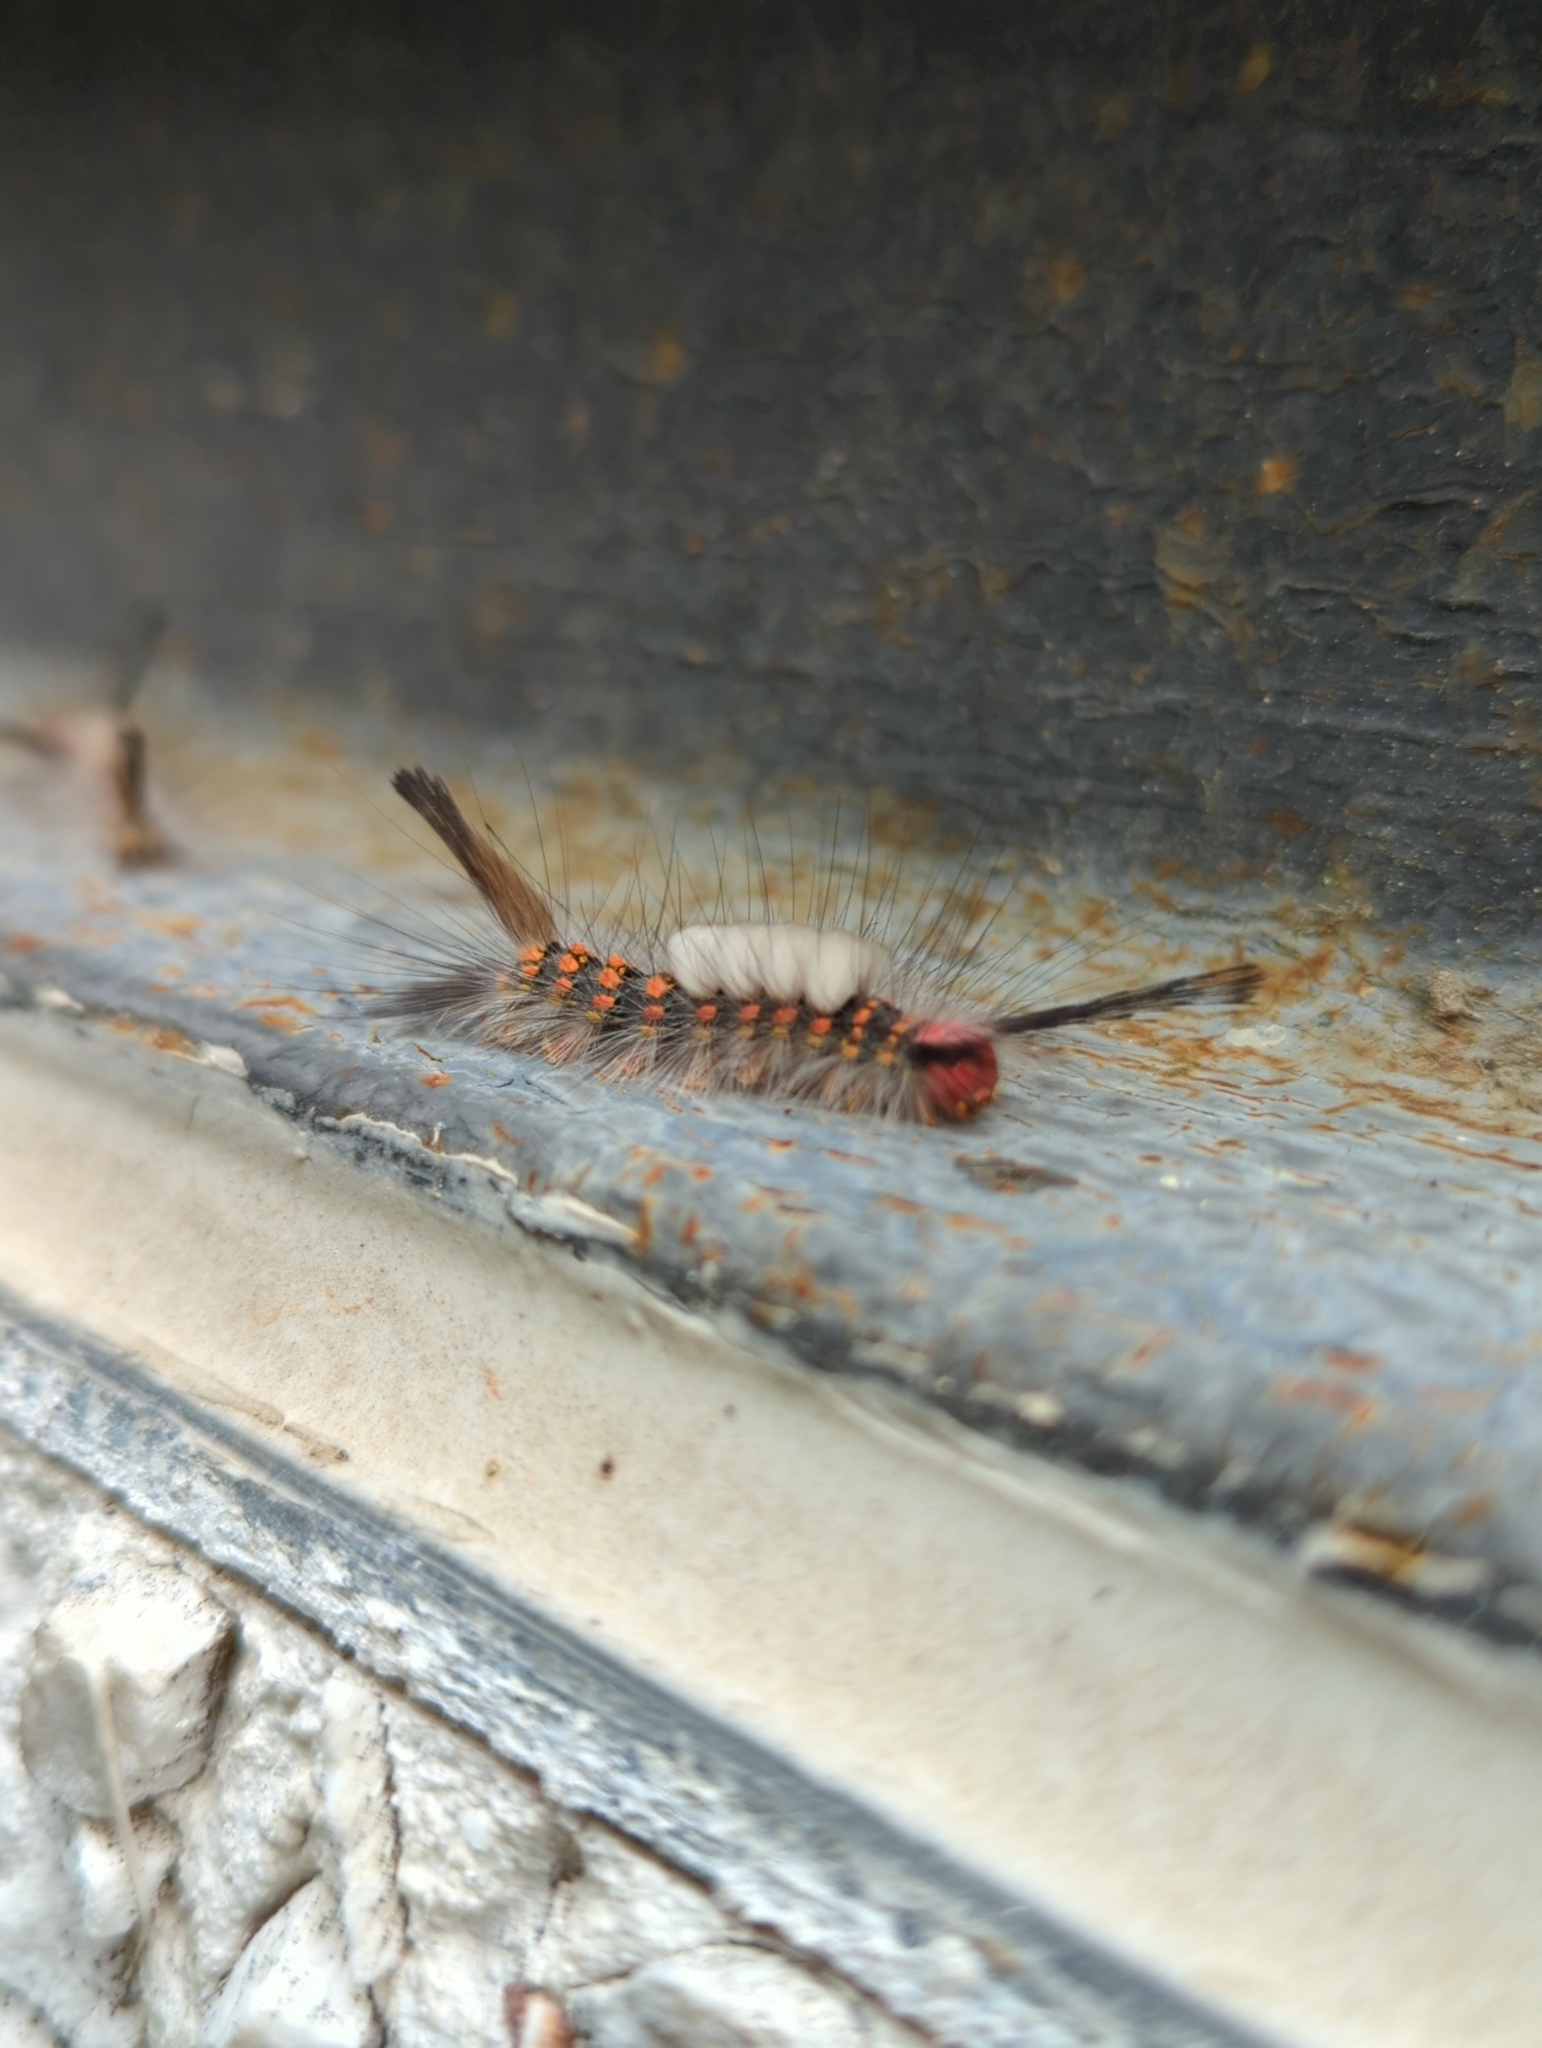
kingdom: Animalia
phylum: Arthropoda
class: Insecta
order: Lepidoptera
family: Erebidae
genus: Orgyia
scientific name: Orgyia detrita
